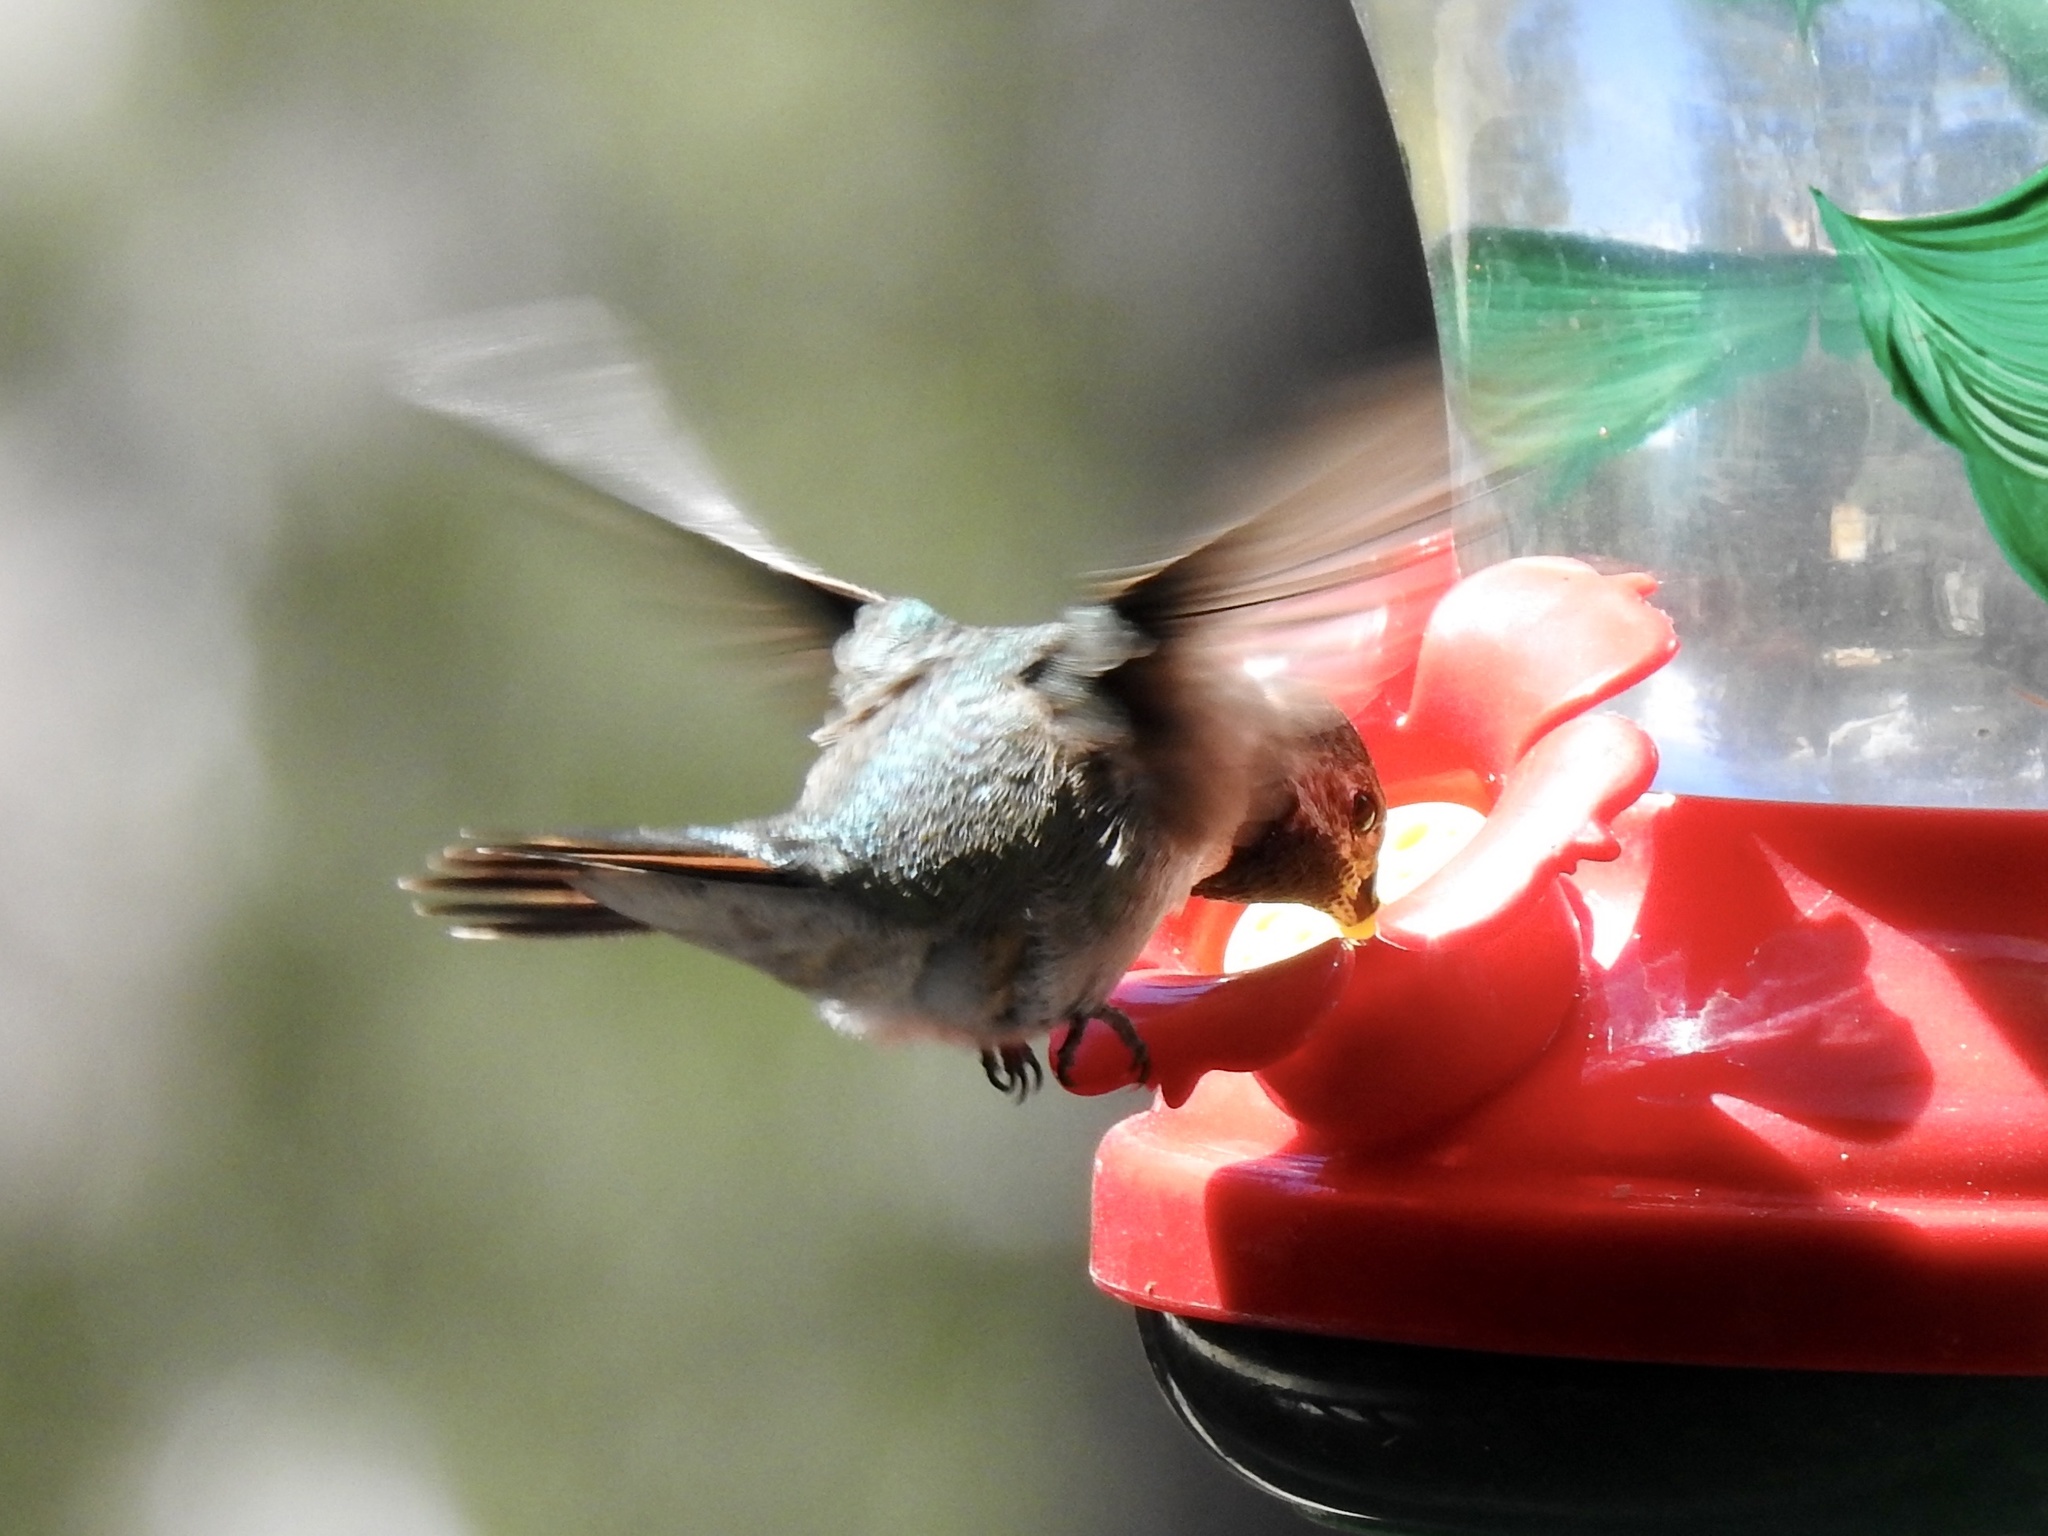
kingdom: Animalia
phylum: Chordata
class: Aves
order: Apodiformes
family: Trochilidae
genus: Selasphorus
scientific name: Selasphorus platycercus
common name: Broad-tailed hummingbird
